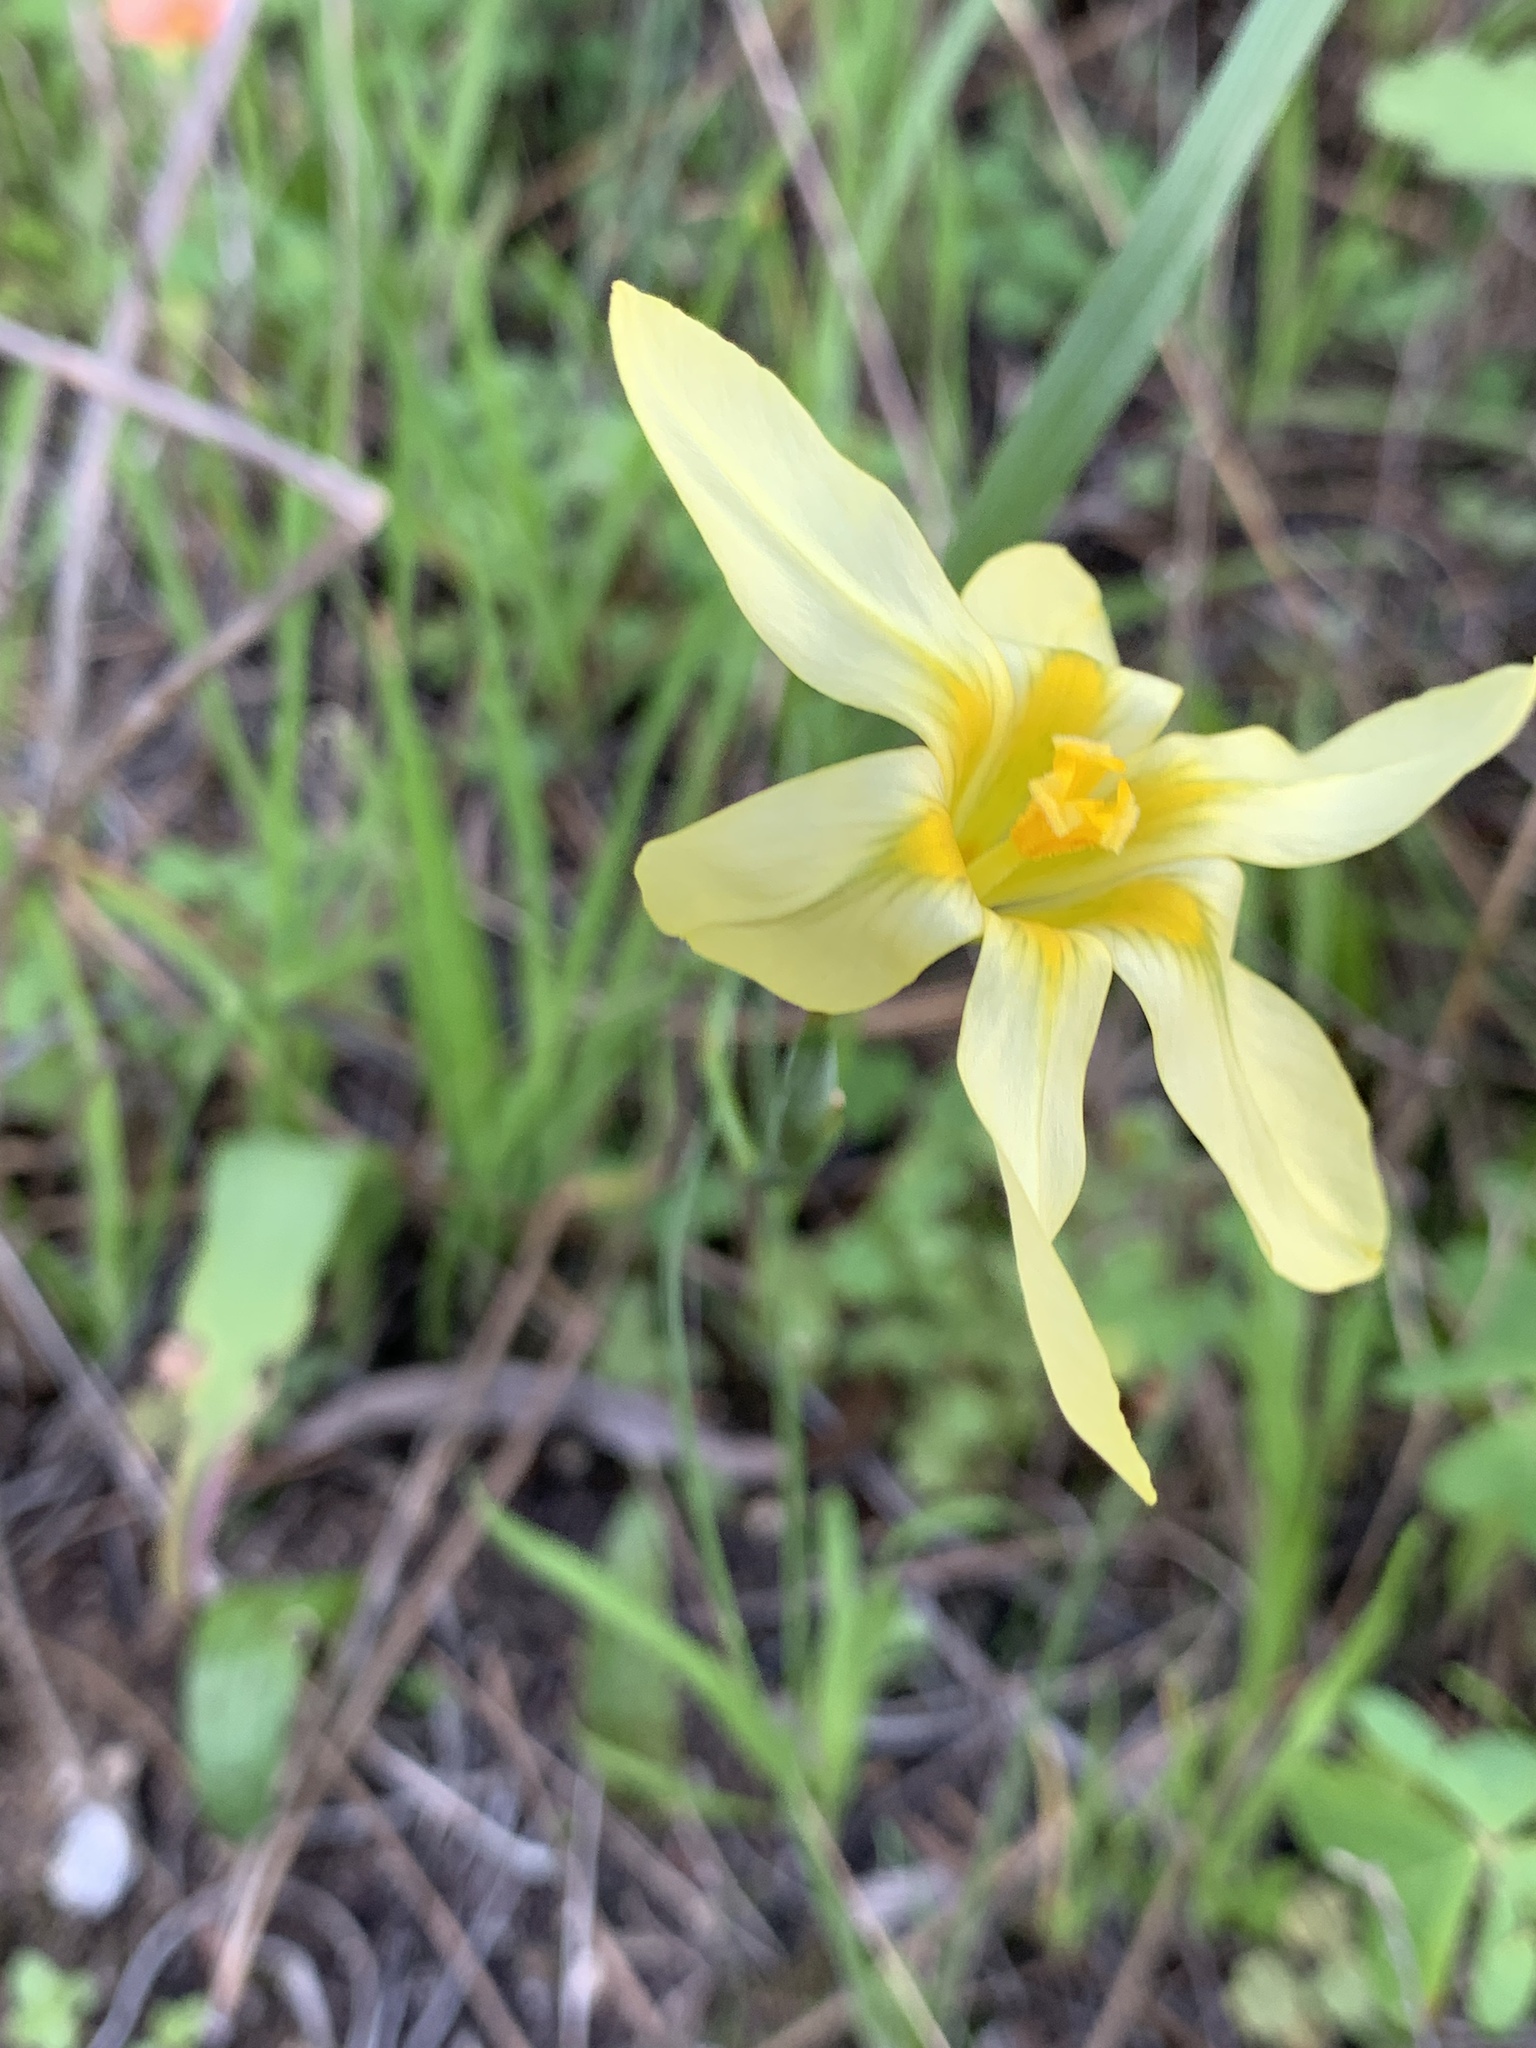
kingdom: Plantae
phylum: Tracheophyta
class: Liliopsida
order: Asparagales
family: Iridaceae
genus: Moraea
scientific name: Moraea collina
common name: Cape-tulip
